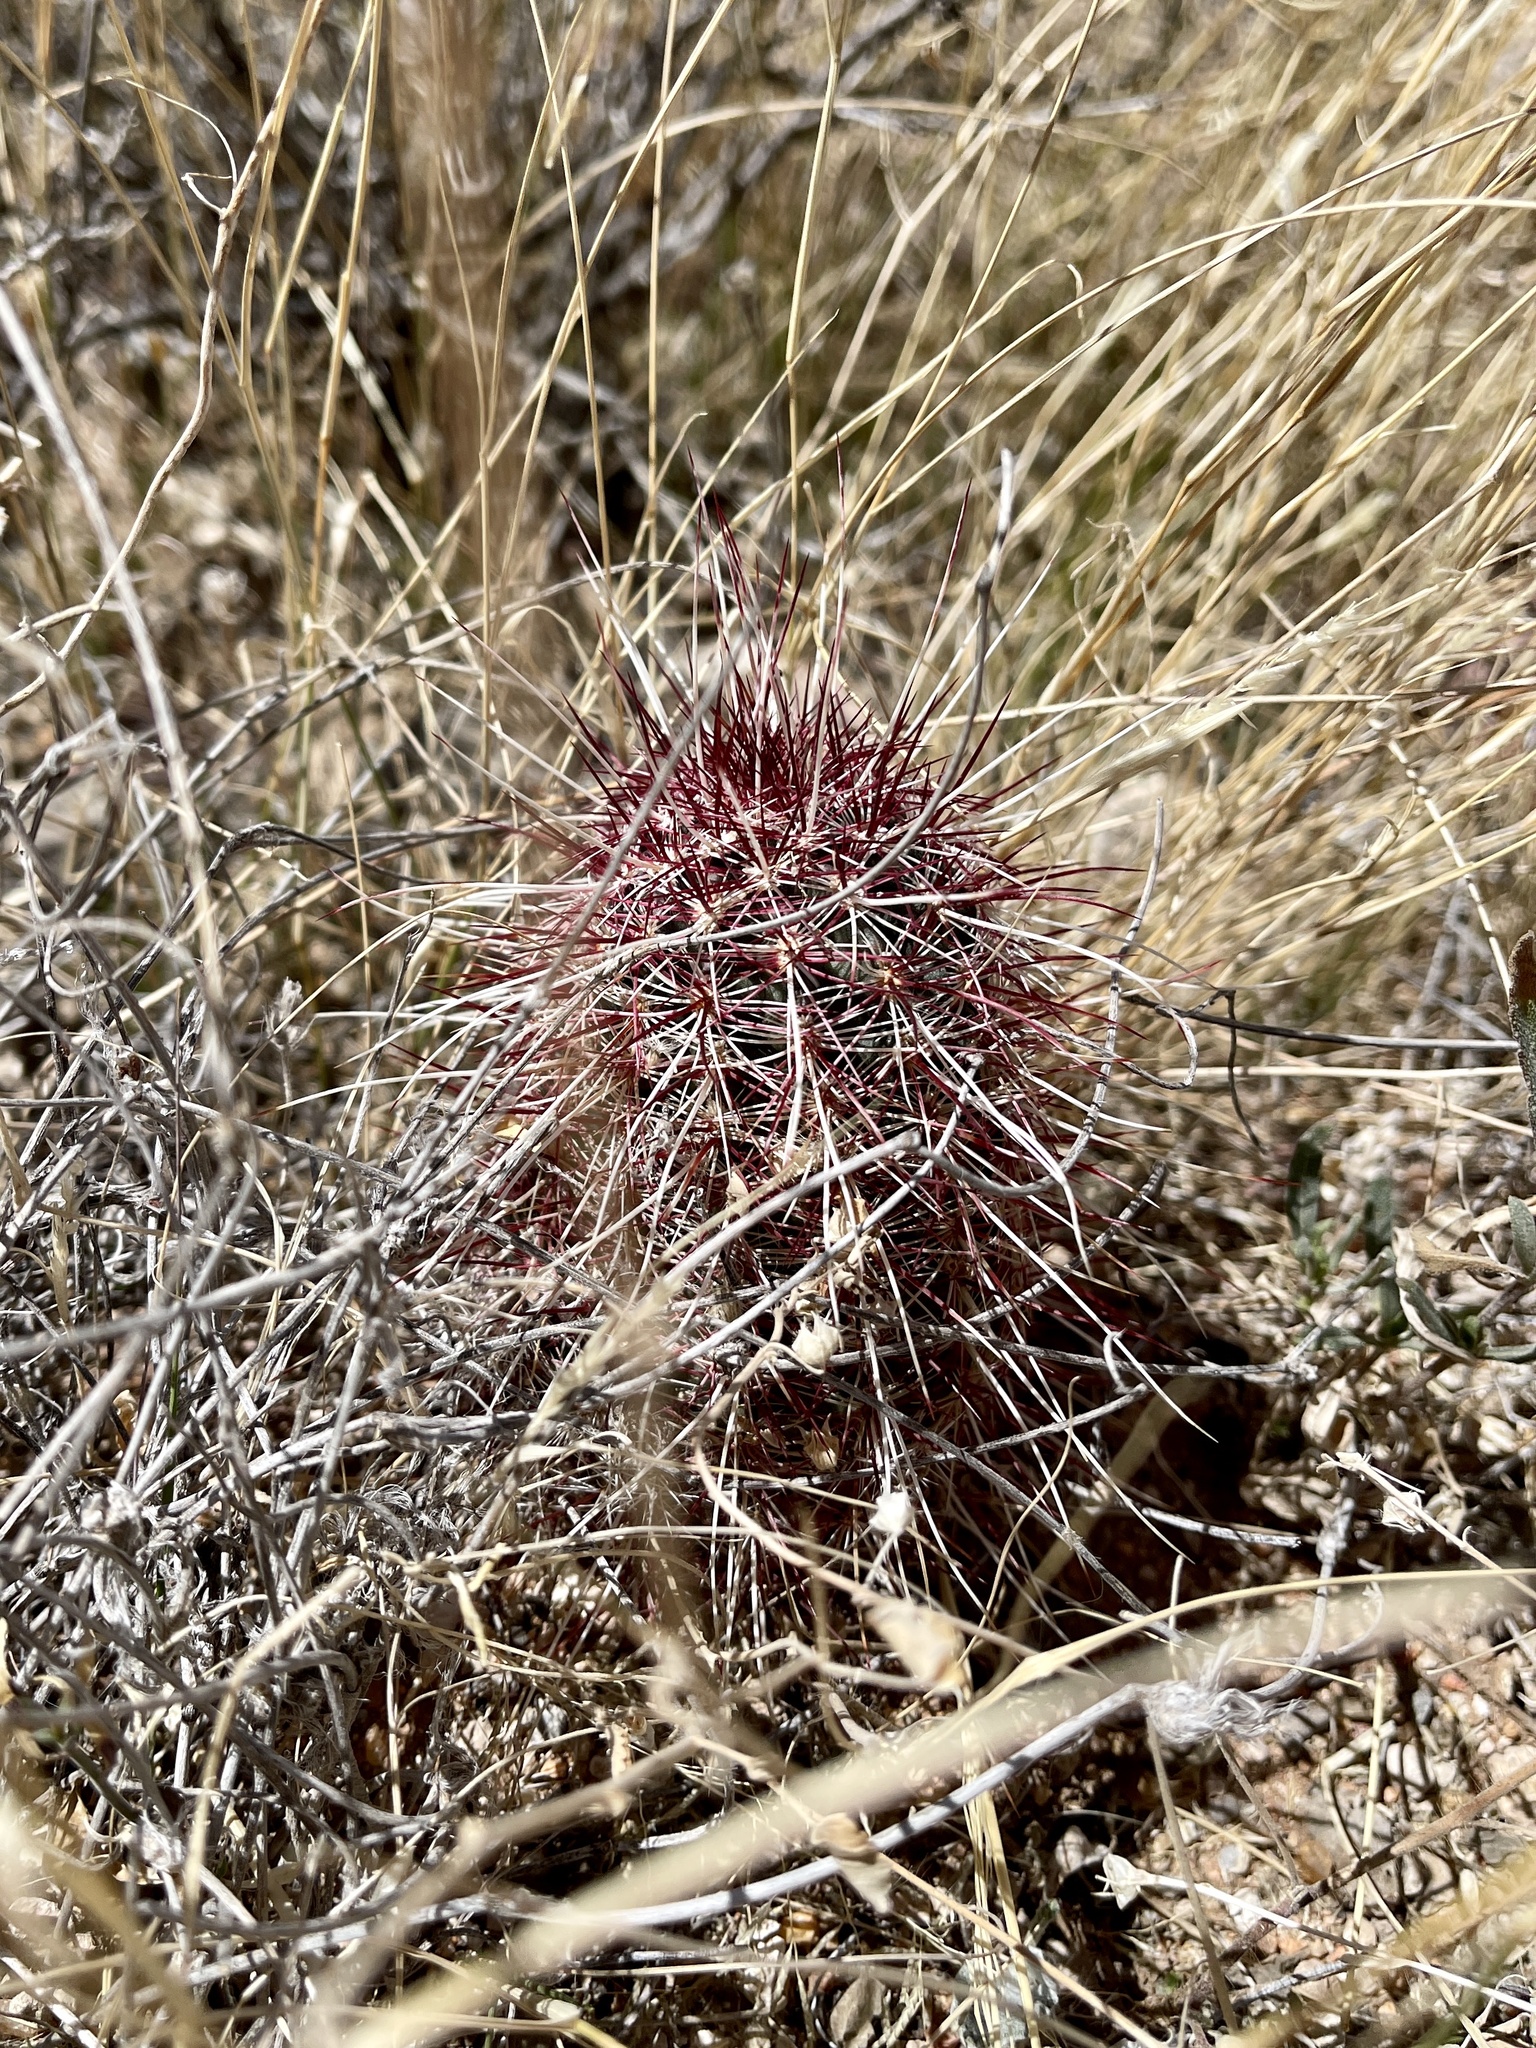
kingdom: Plantae
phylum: Tracheophyta
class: Magnoliopsida
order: Caryophyllales
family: Cactaceae
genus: Echinocereus
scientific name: Echinocereus viridiflorus
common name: Nylon hedgehog cactus
